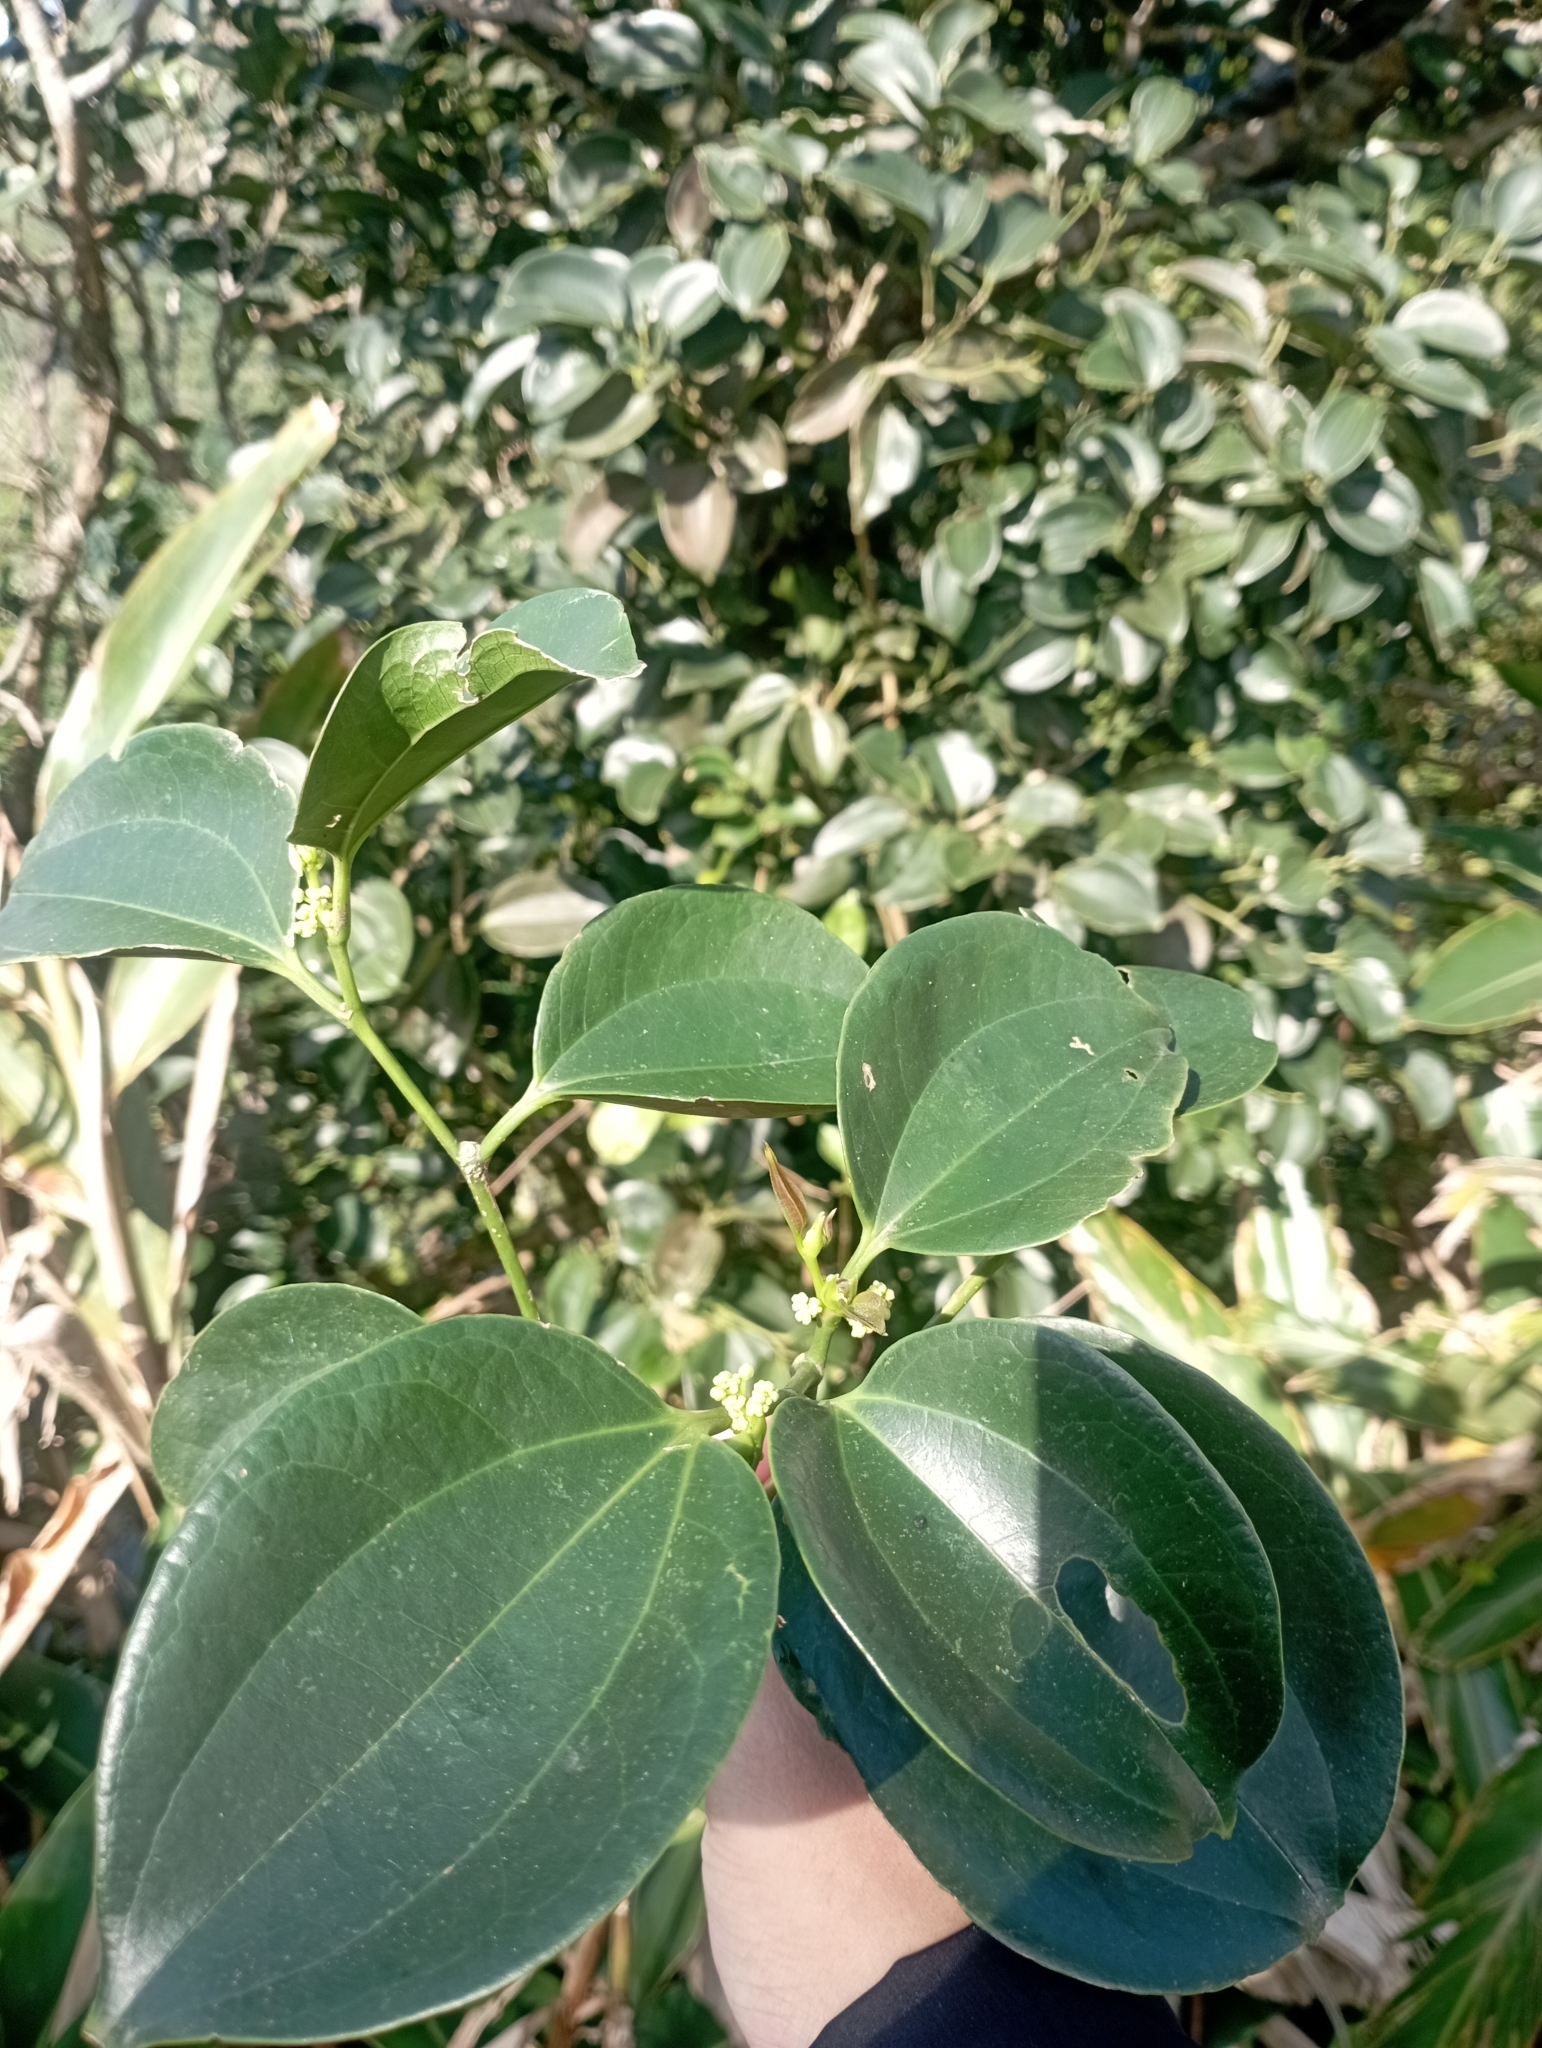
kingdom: Plantae
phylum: Tracheophyta
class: Magnoliopsida
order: Rosales
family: Cannabaceae
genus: Celtis
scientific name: Celtis philippensis
